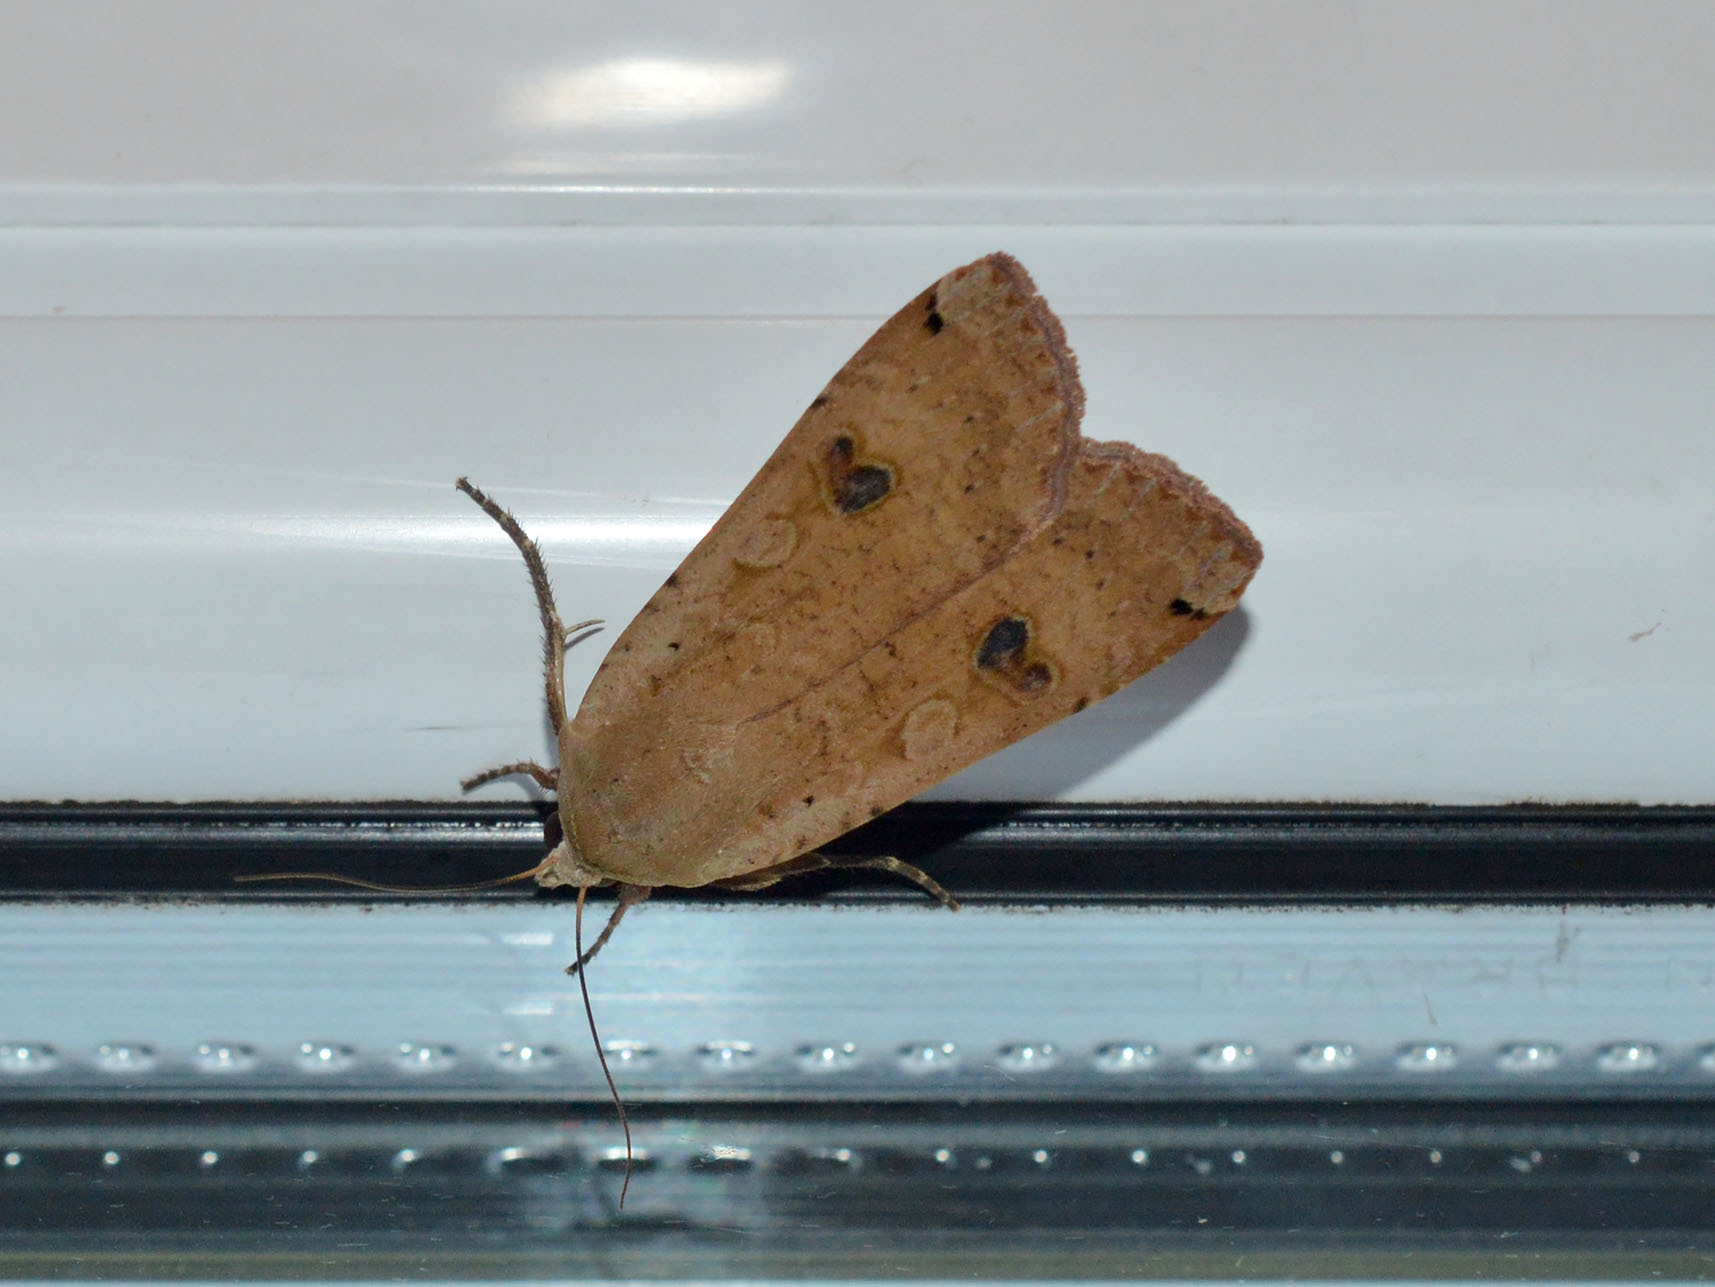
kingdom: Animalia
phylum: Arthropoda
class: Insecta
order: Lepidoptera
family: Noctuidae
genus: Noctua
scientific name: Noctua pronuba
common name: Large yellow underwing
